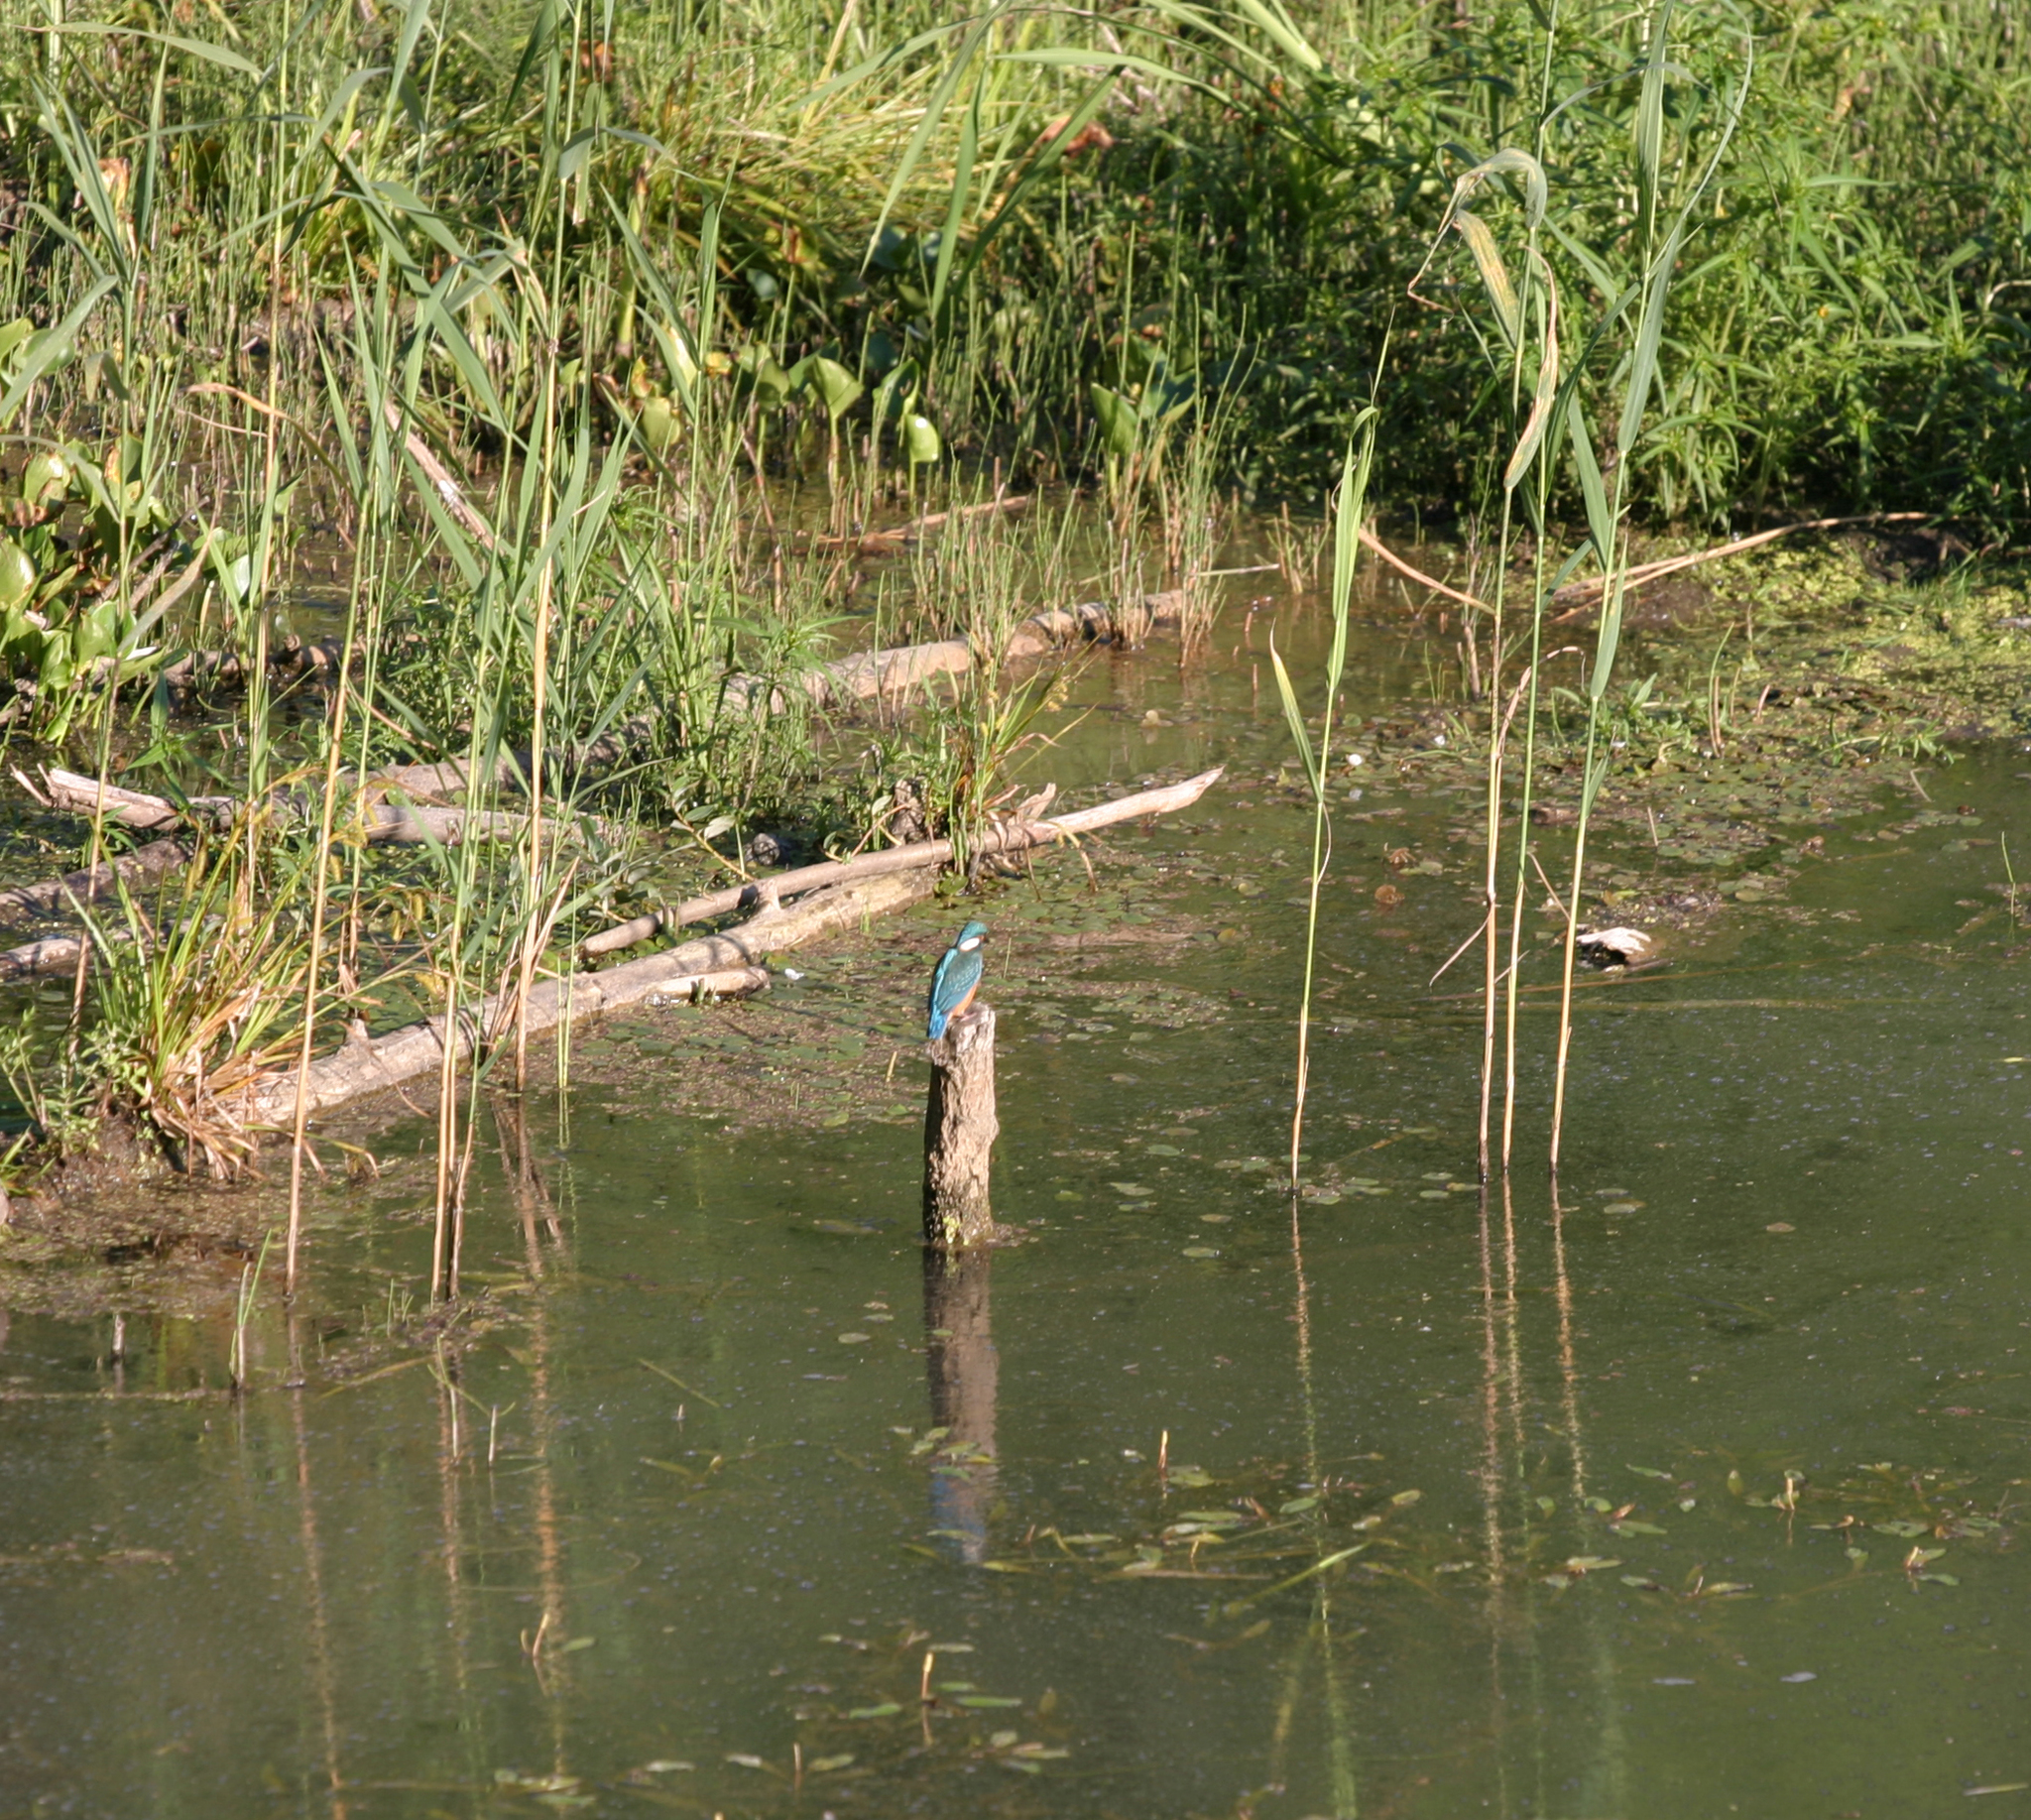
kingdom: Animalia
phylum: Chordata
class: Aves
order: Coraciiformes
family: Alcedinidae
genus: Alcedo
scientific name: Alcedo atthis
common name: Common kingfisher
